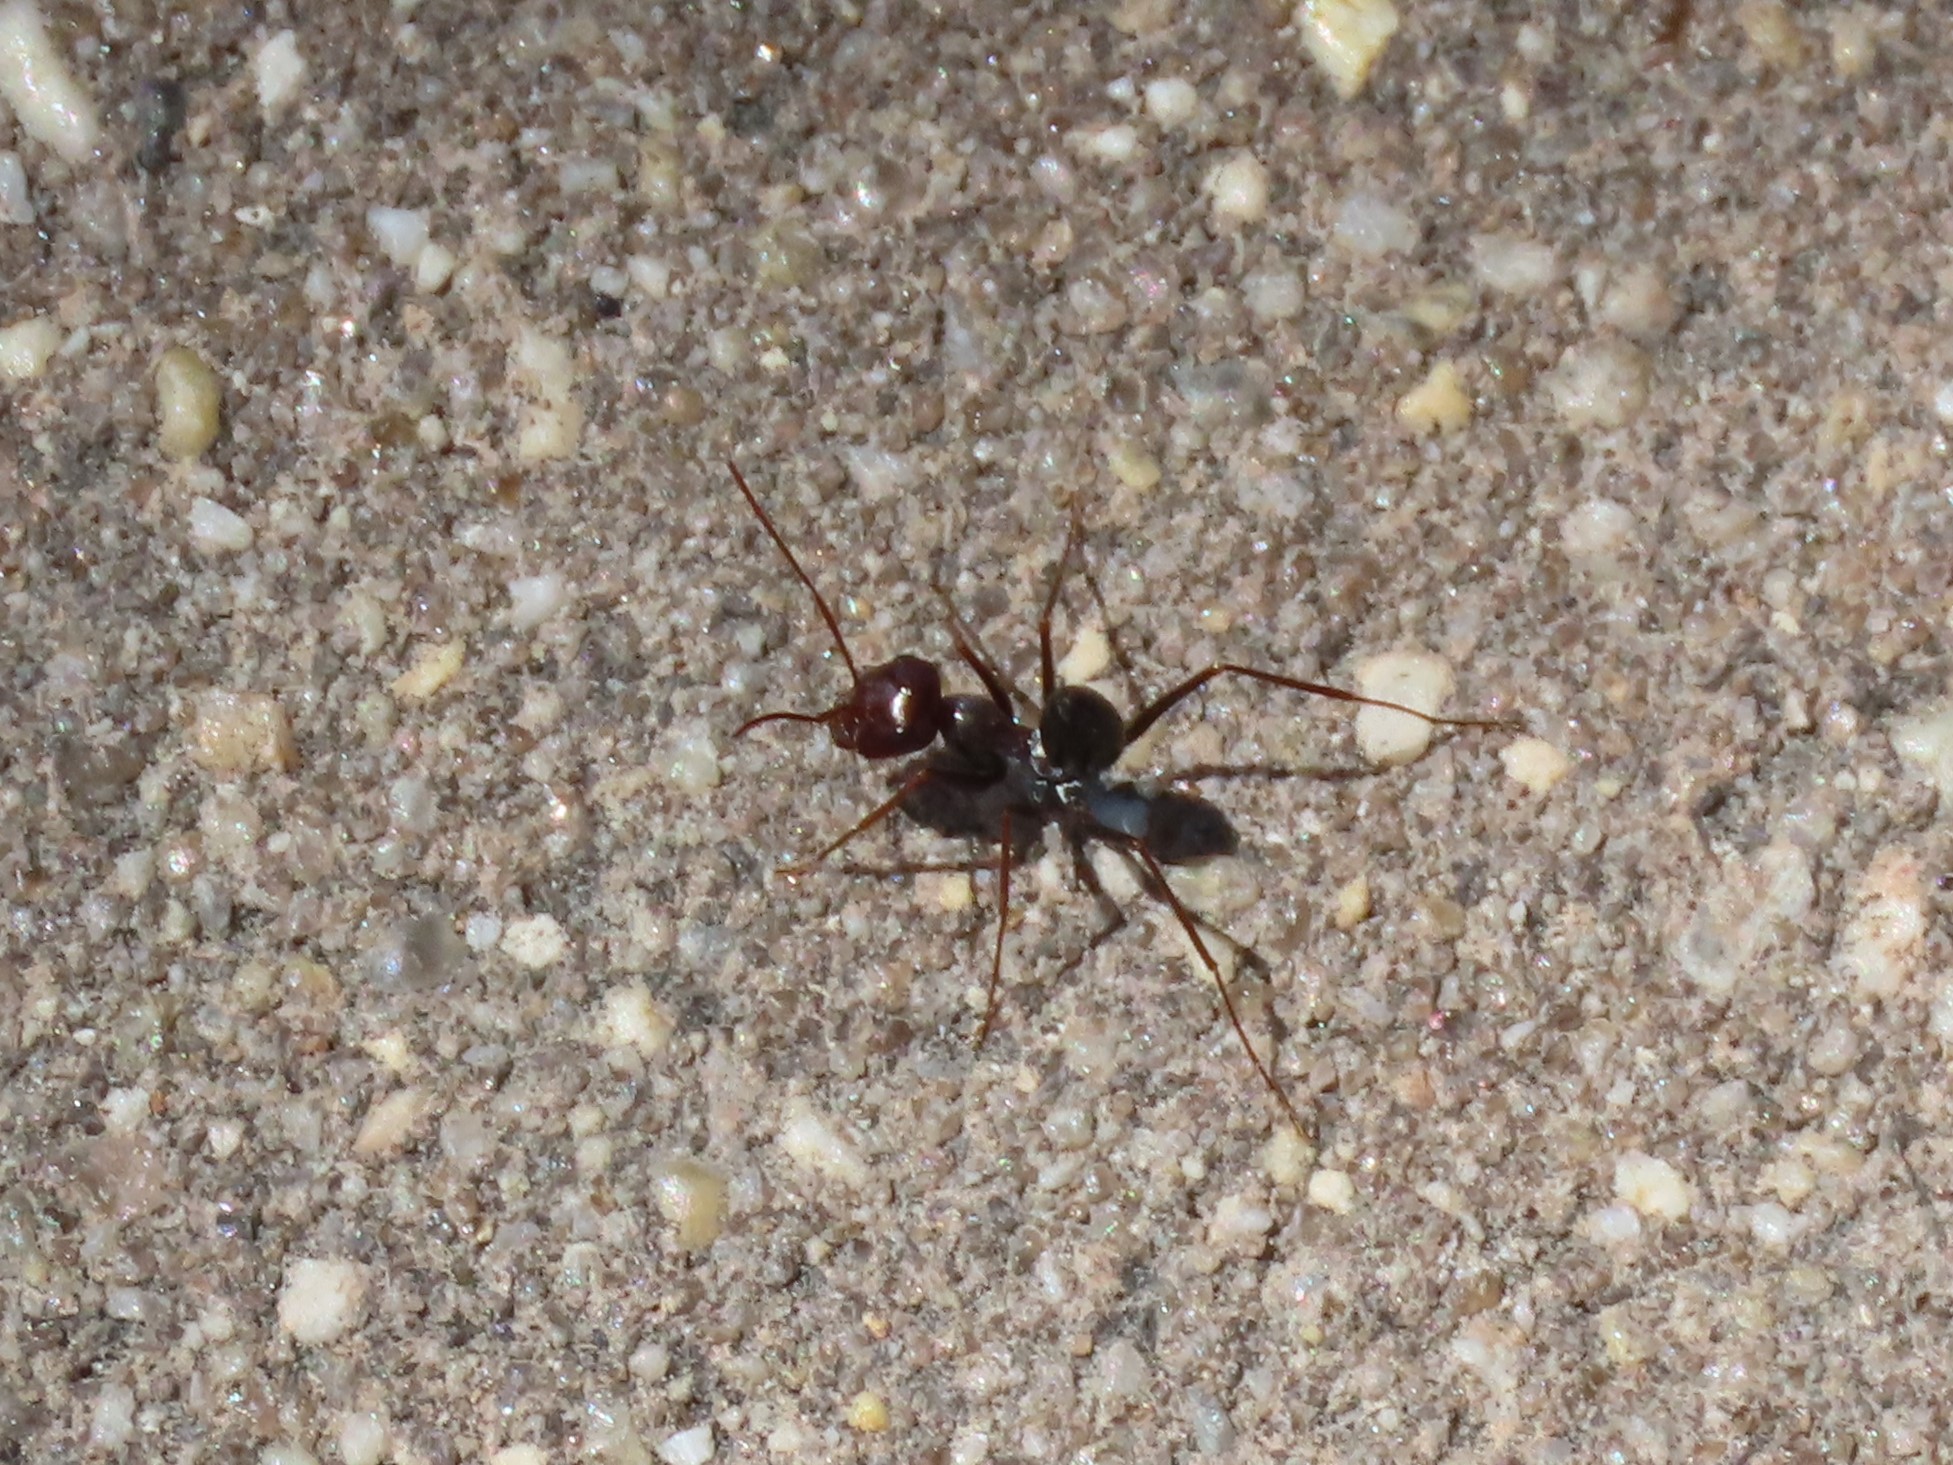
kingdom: Animalia
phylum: Arthropoda
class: Insecta
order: Hymenoptera
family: Formicidae
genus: Cataglyphis
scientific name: Cataglyphis ibericus
